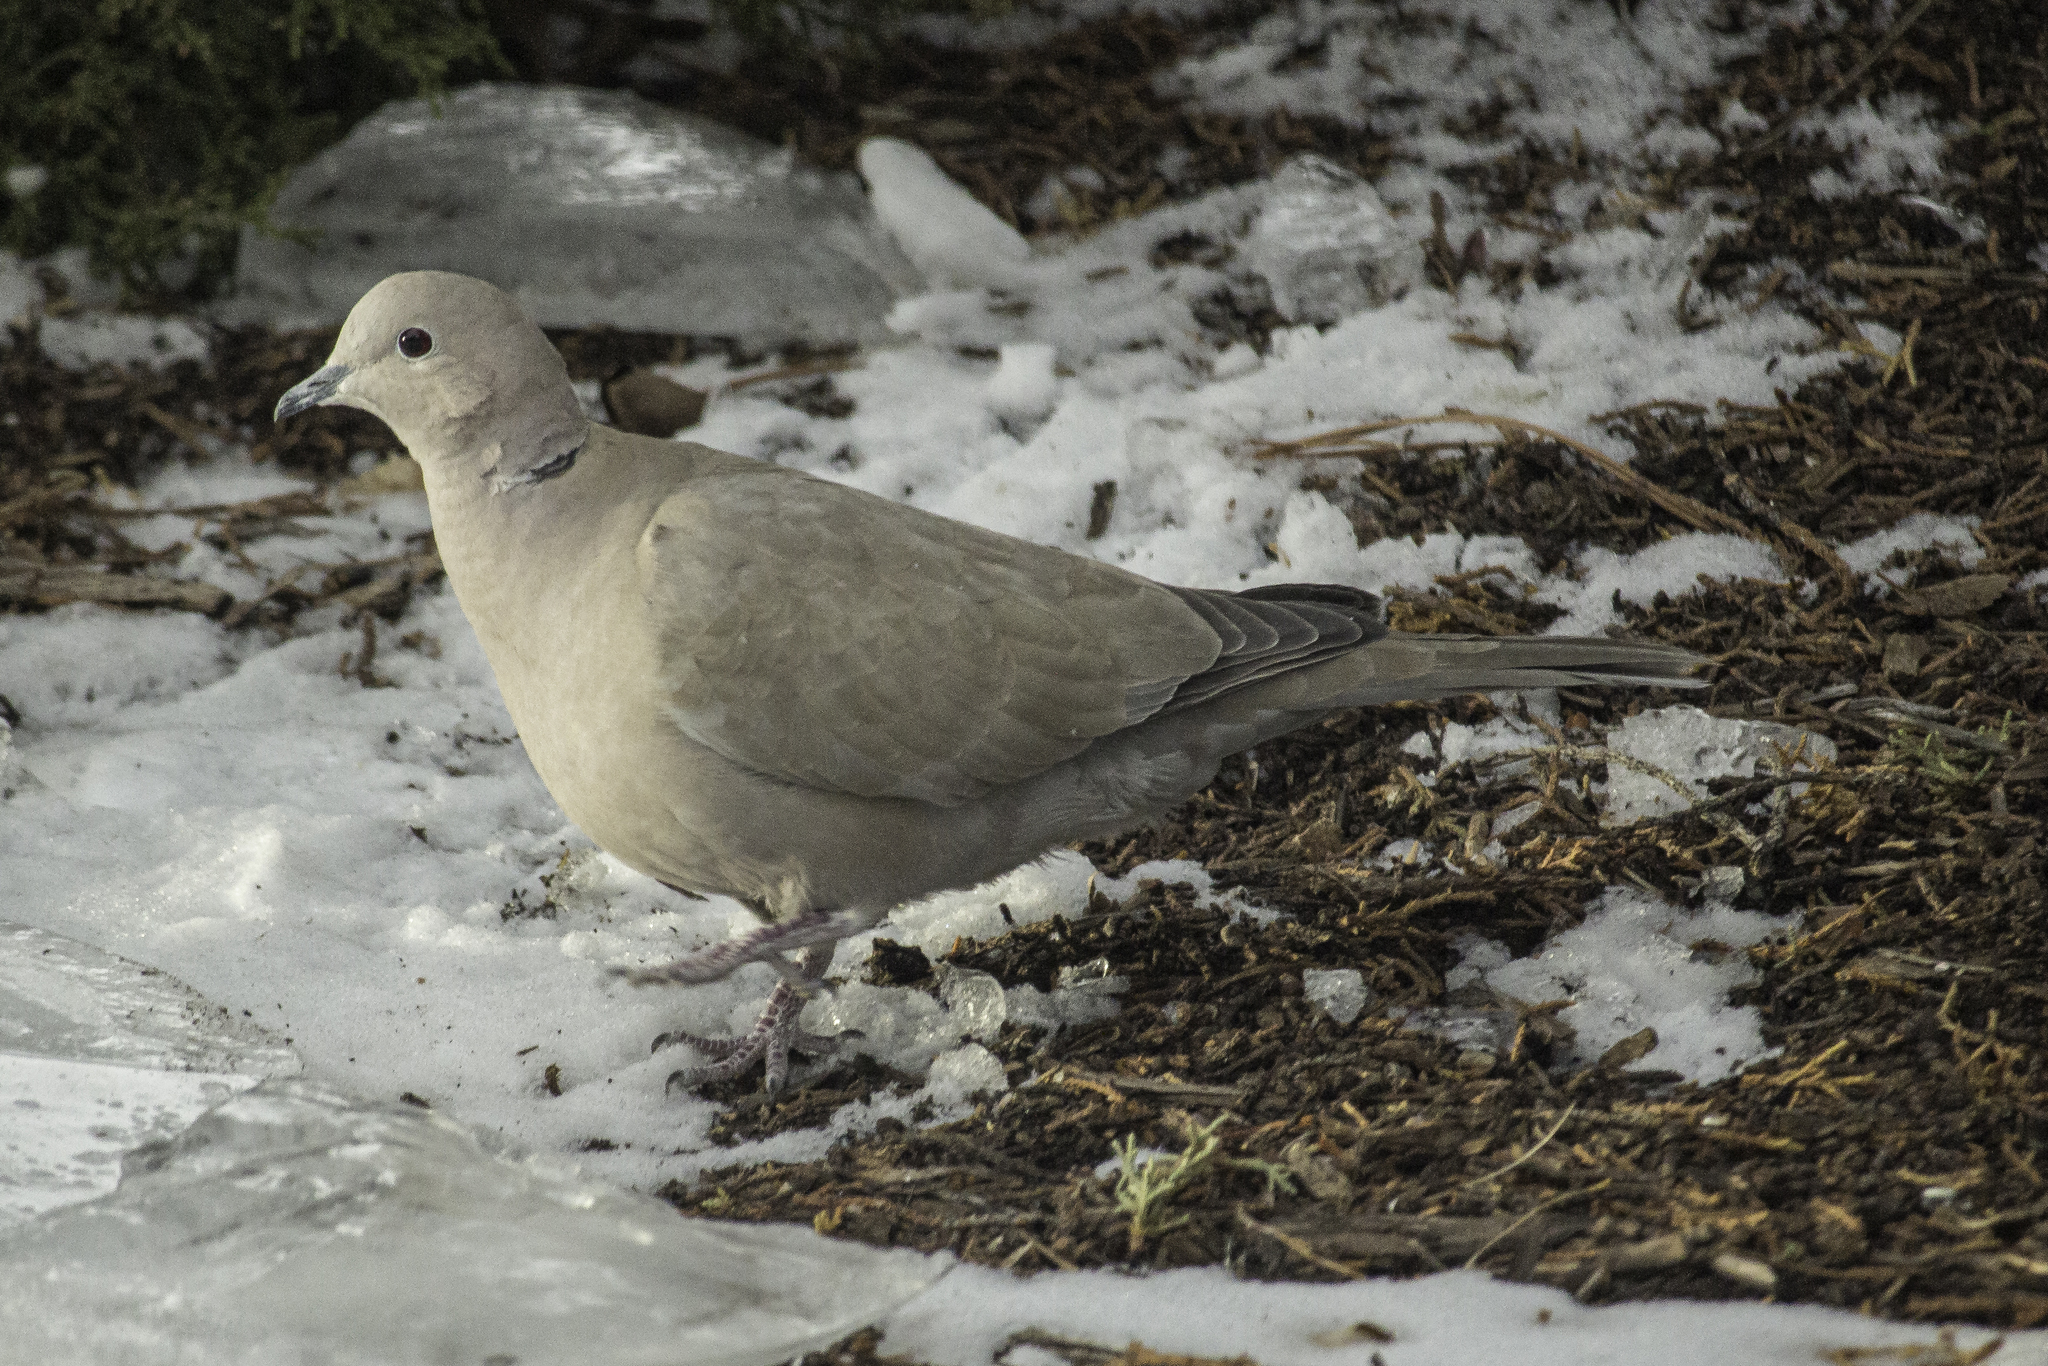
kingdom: Animalia
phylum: Chordata
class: Aves
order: Columbiformes
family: Columbidae
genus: Streptopelia
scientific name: Streptopelia decaocto
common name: Eurasian collared dove
